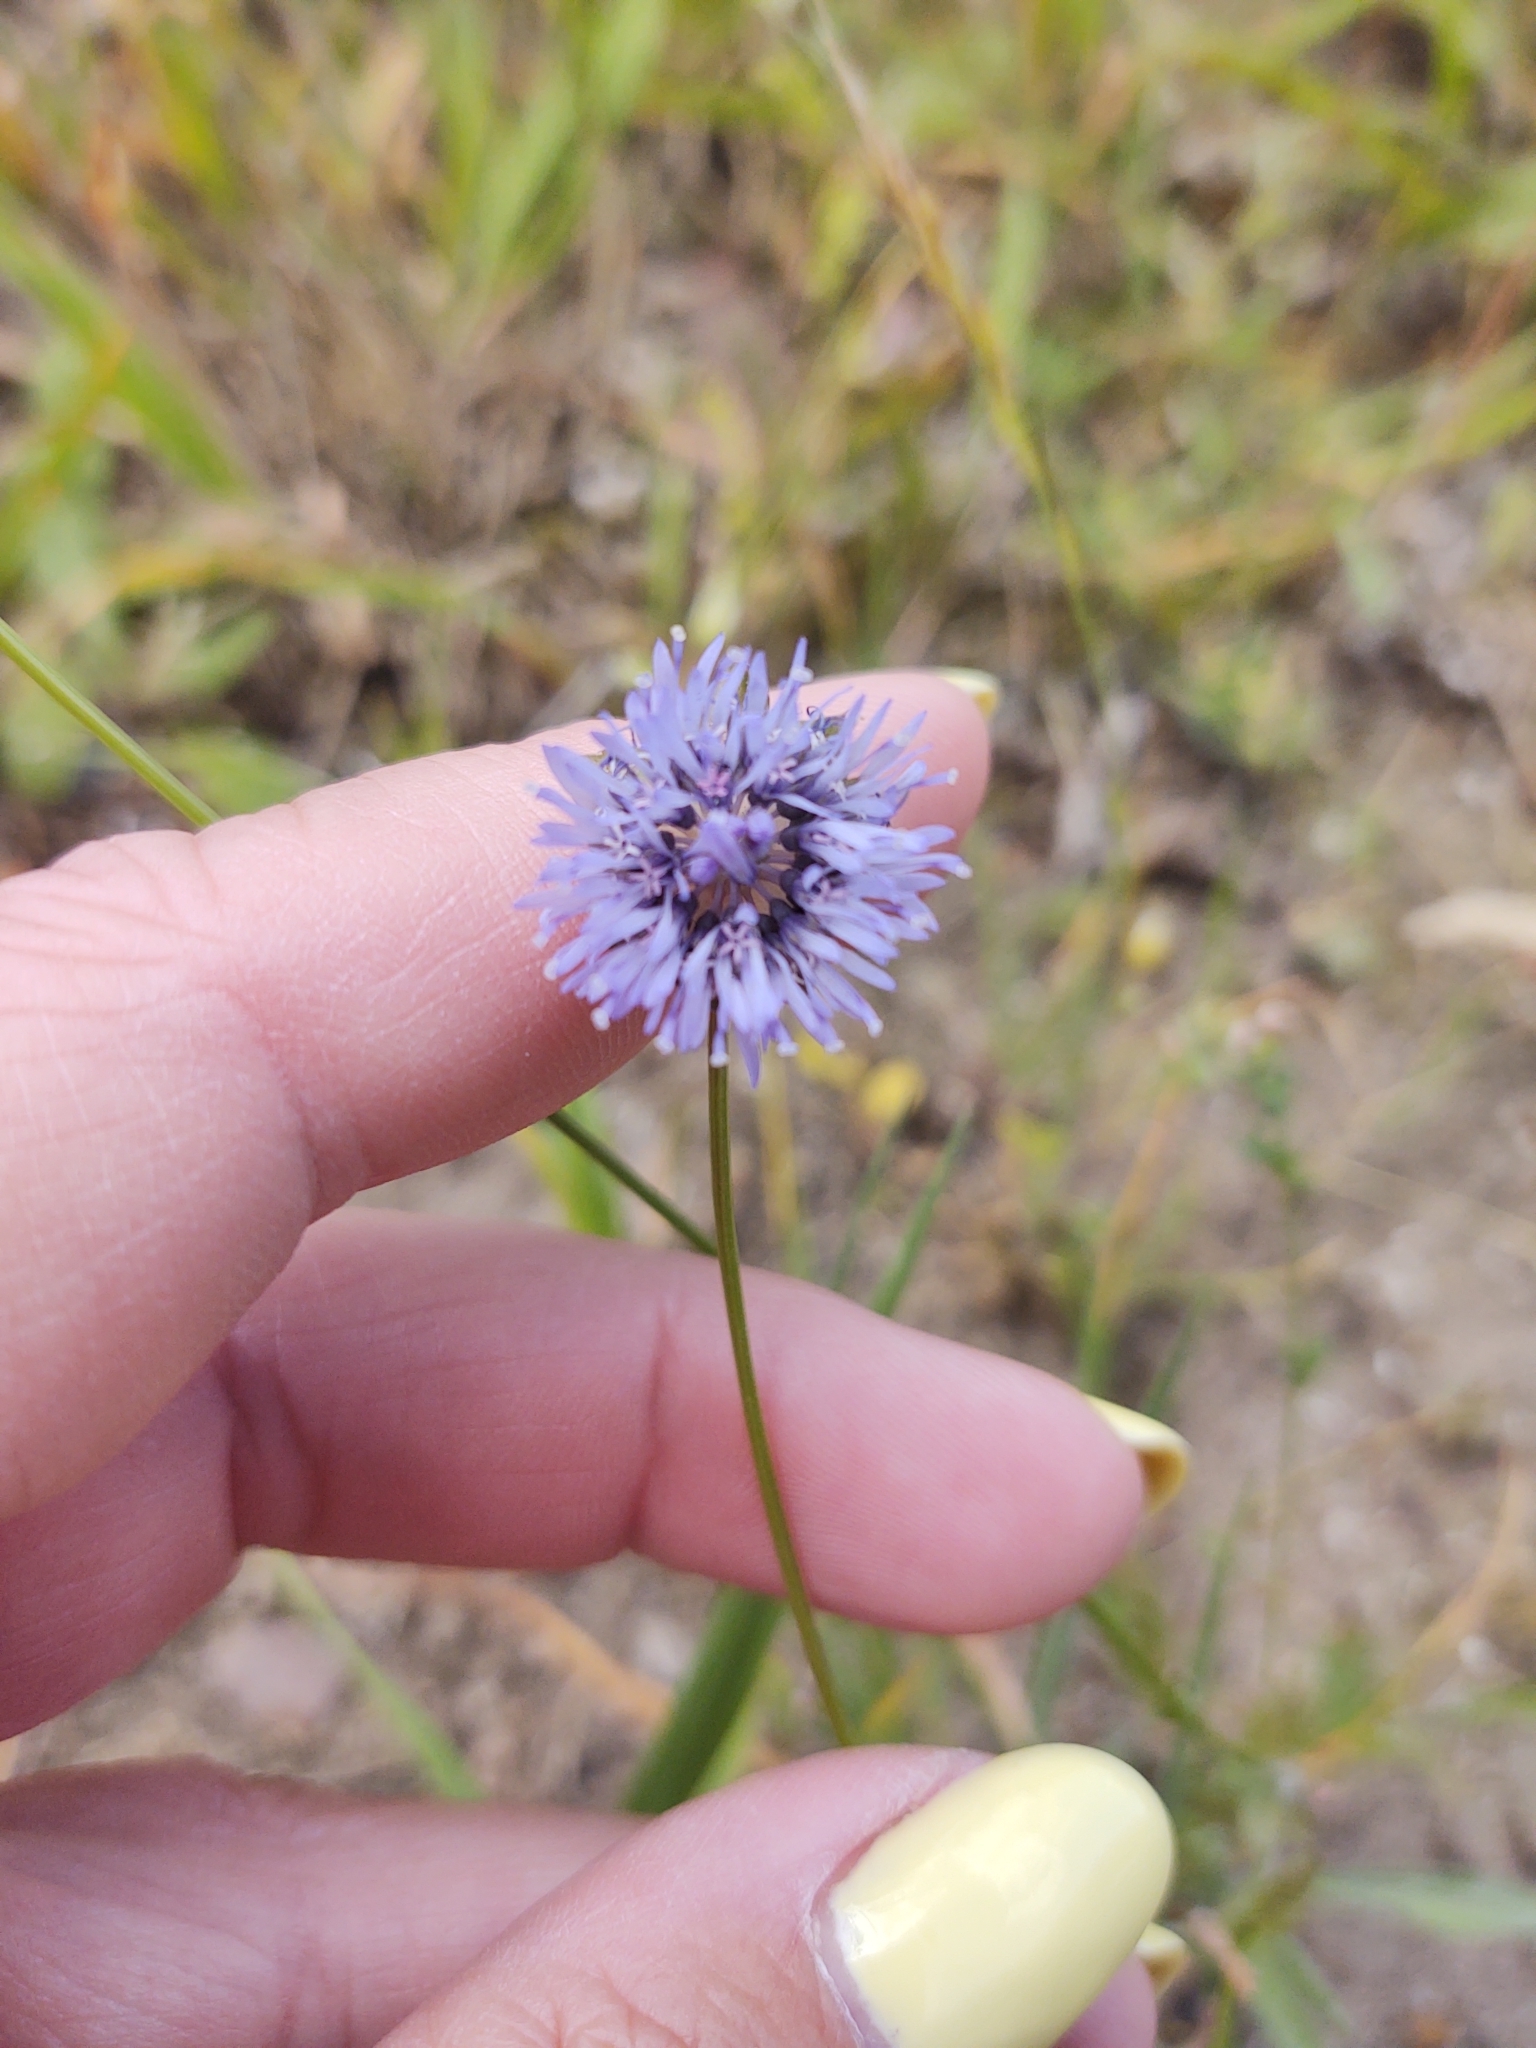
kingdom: Plantae
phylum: Tracheophyta
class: Magnoliopsida
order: Asterales
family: Campanulaceae
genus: Jasione
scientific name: Jasione montana
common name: Sheep's-bit
